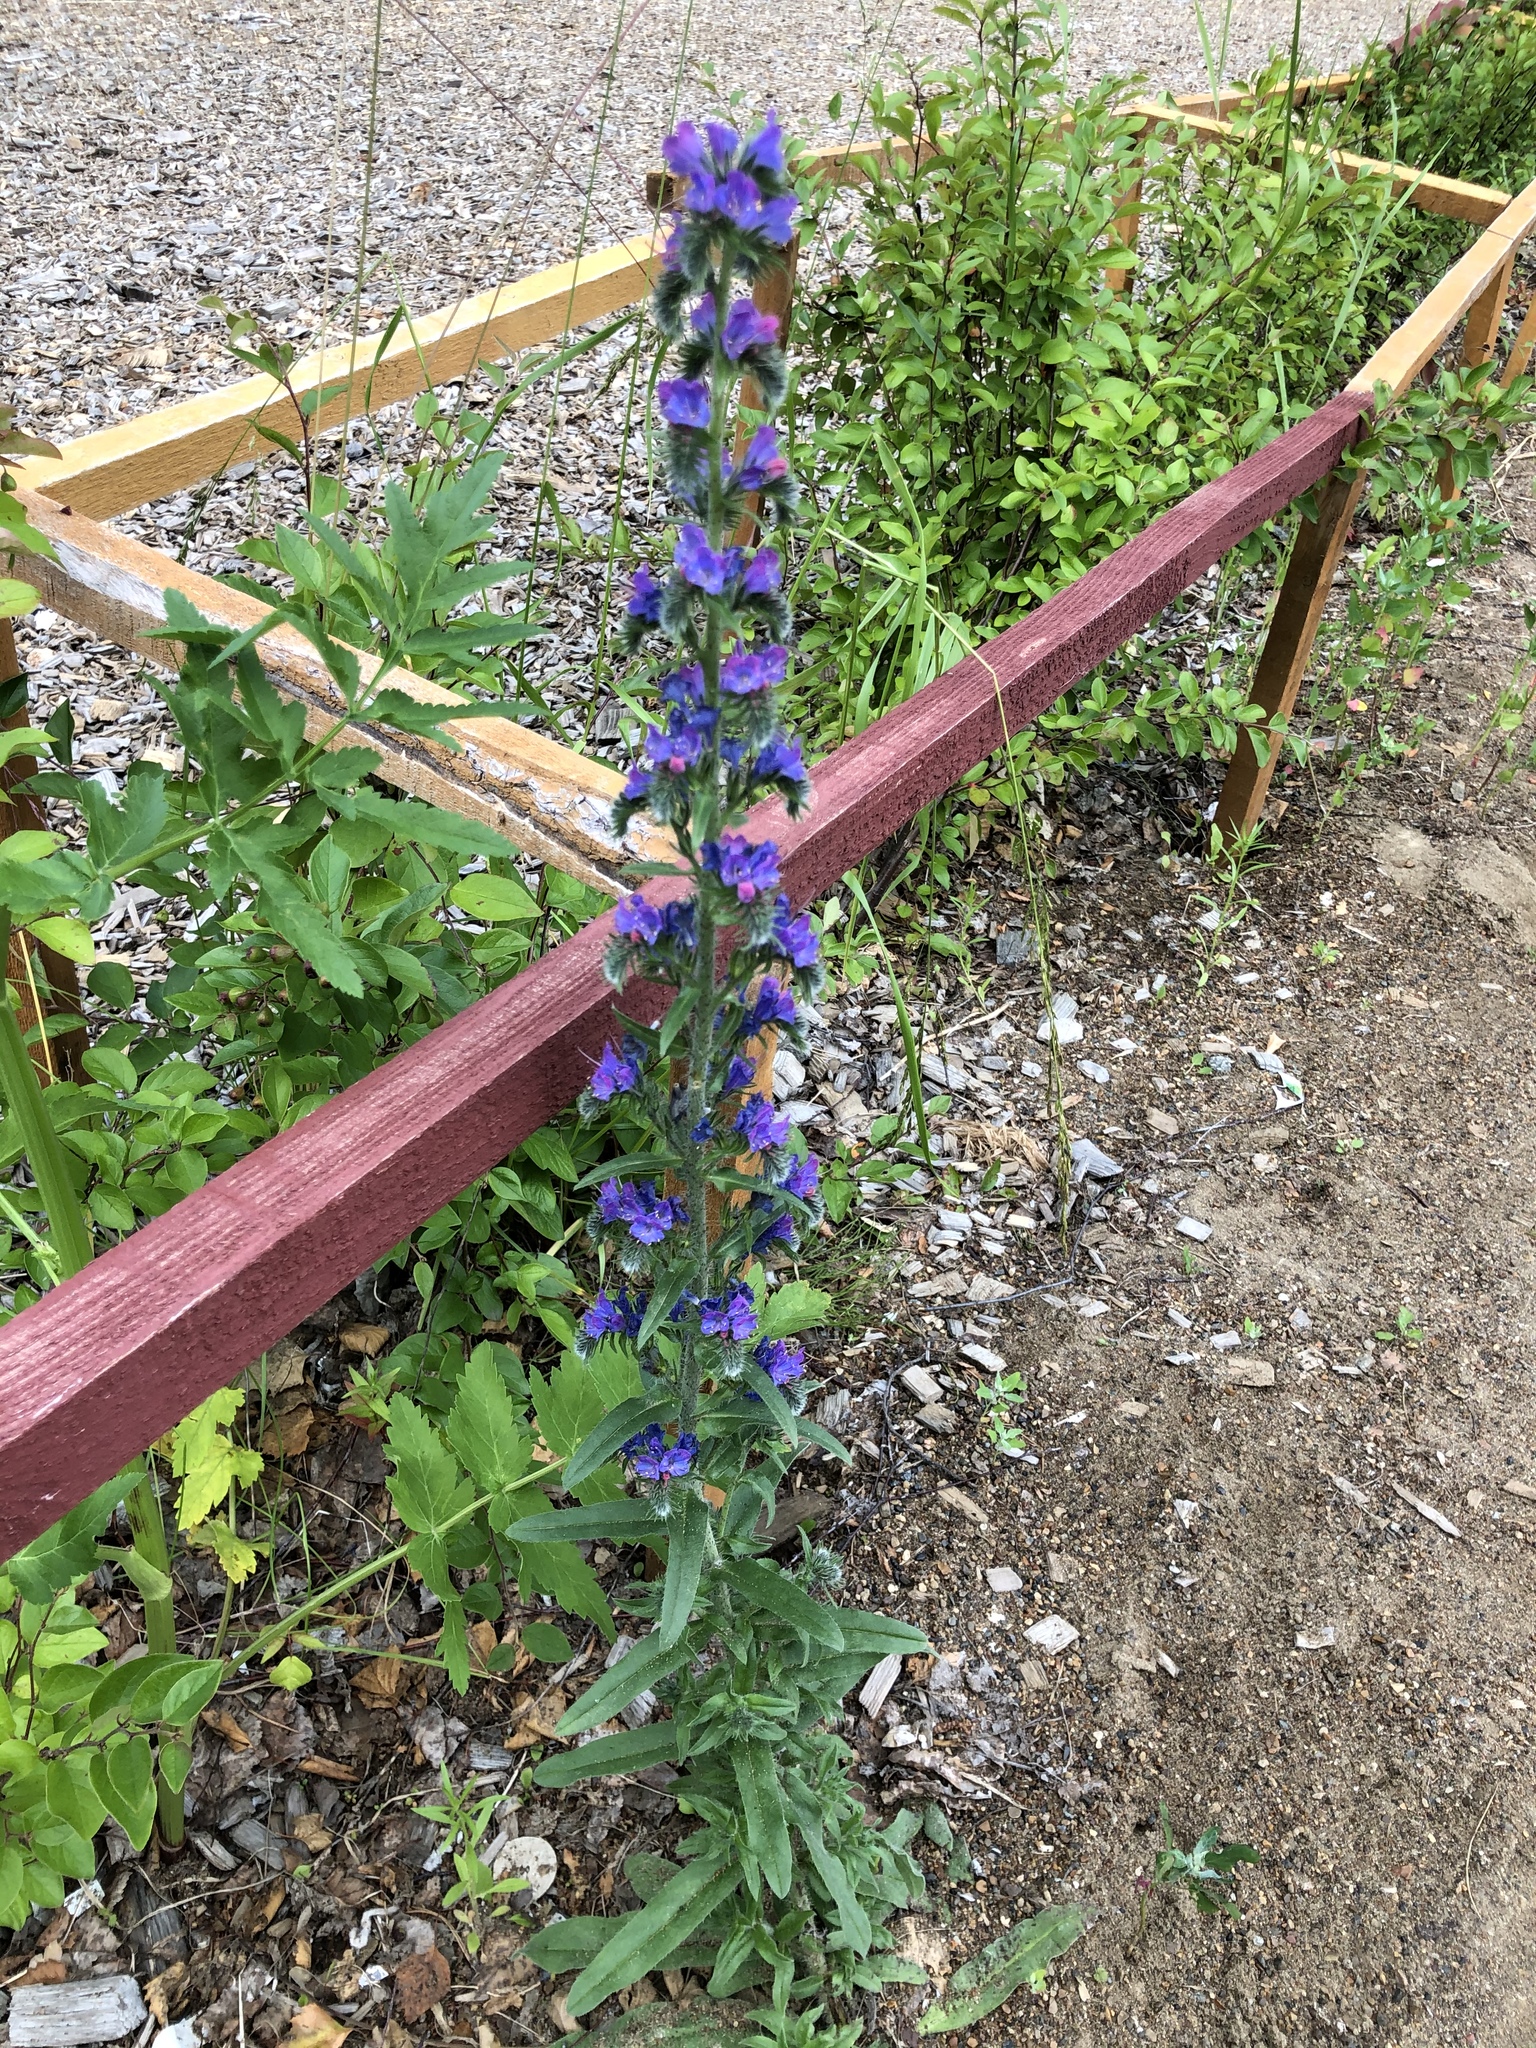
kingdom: Plantae
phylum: Tracheophyta
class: Magnoliopsida
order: Boraginales
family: Boraginaceae
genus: Echium
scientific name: Echium vulgare
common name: Common viper's bugloss
